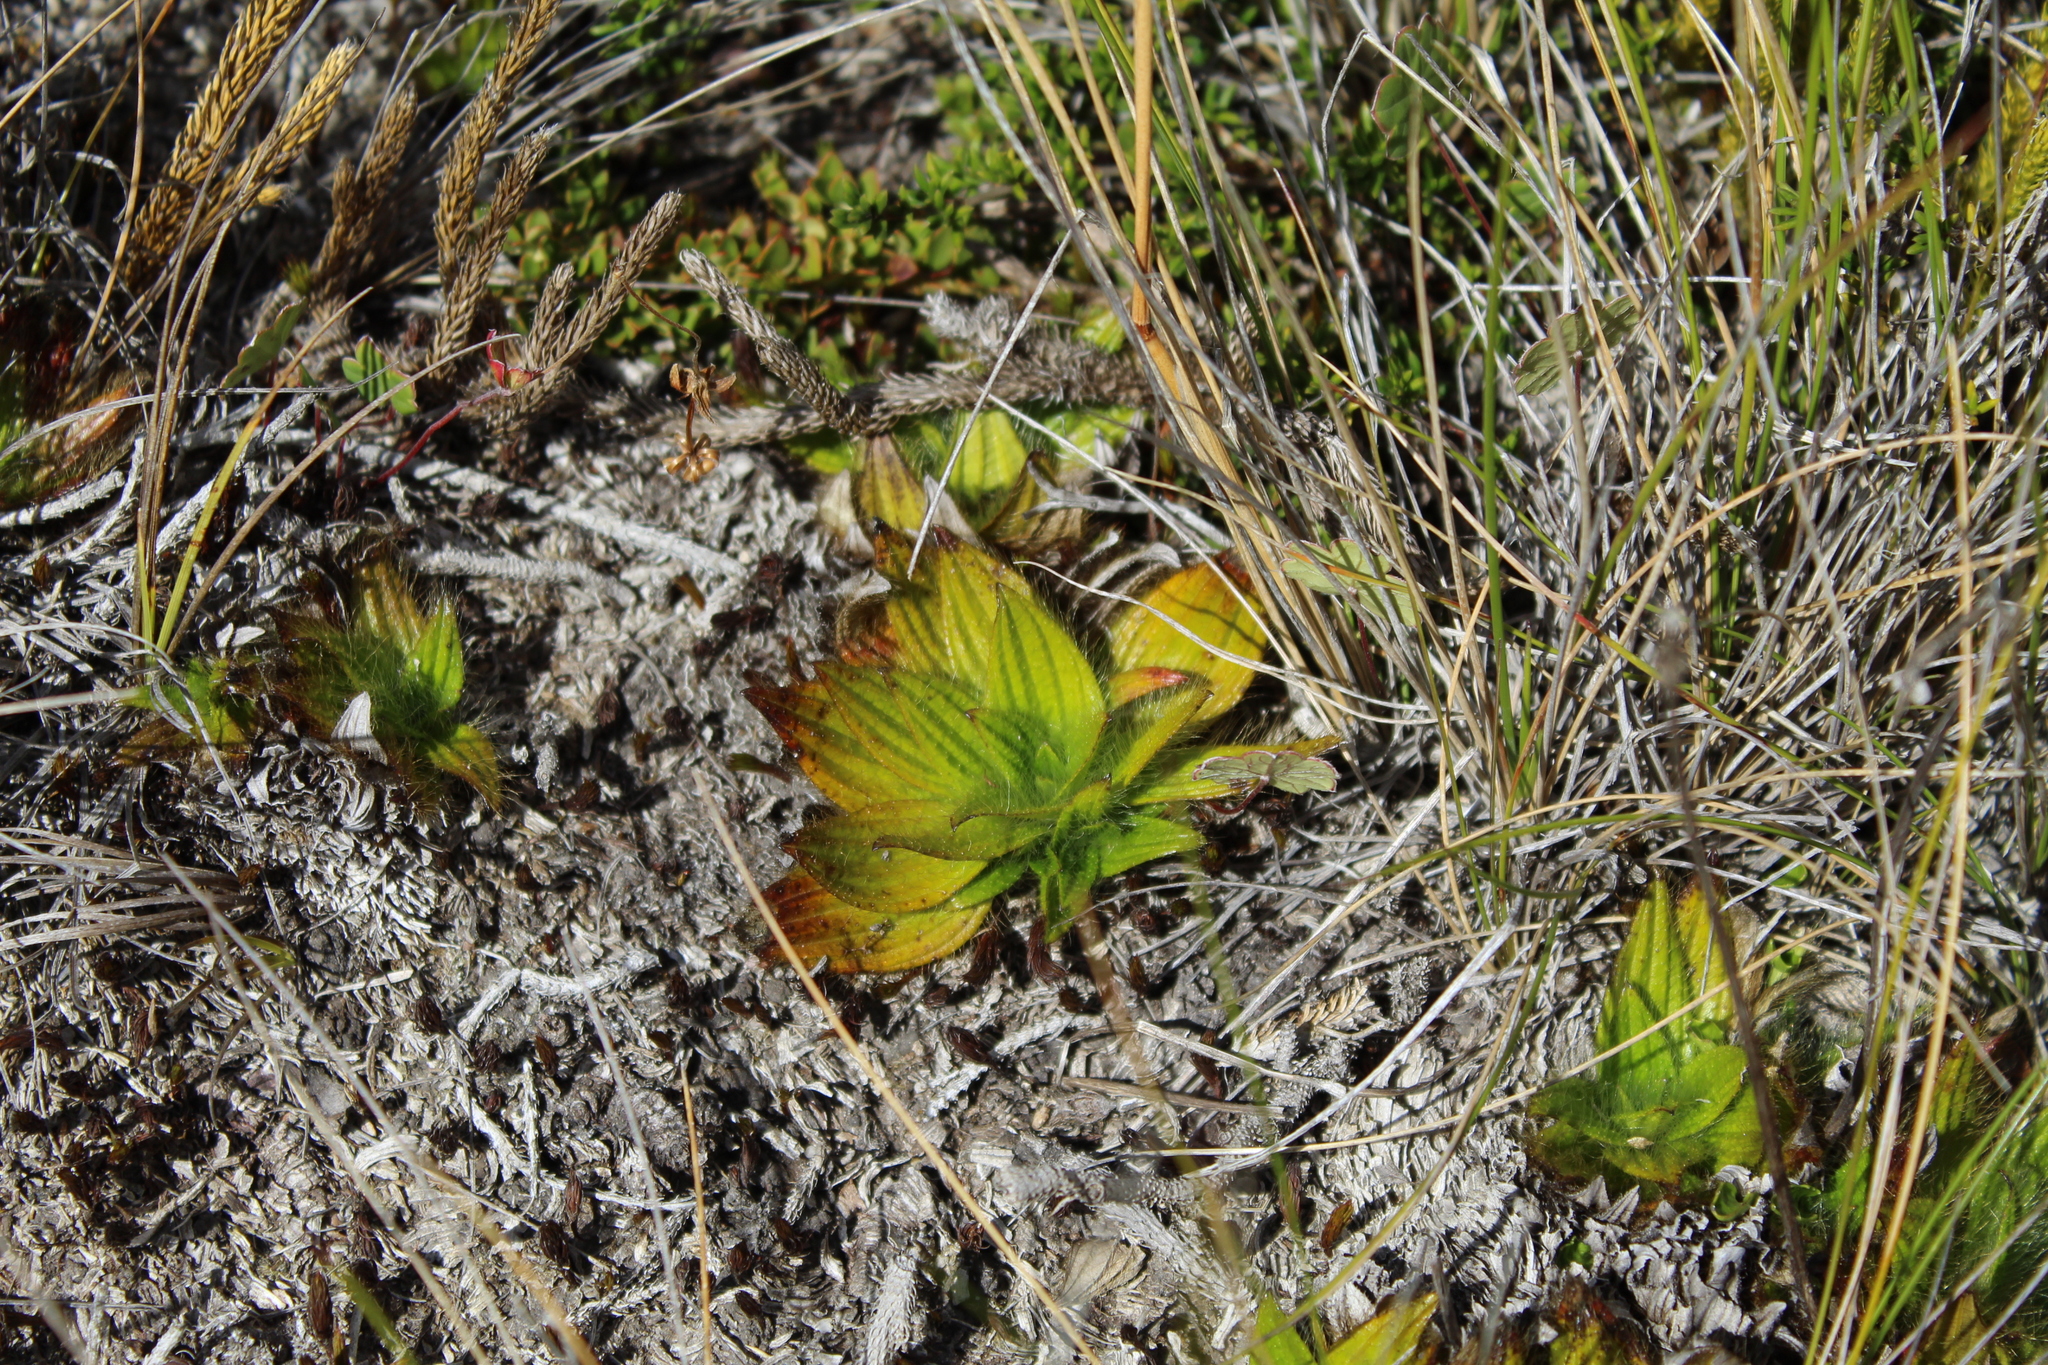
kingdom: Plantae
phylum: Tracheophyta
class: Magnoliopsida
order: Myrtales
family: Melastomataceae
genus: Castratella
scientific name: Castratella piloselloides
